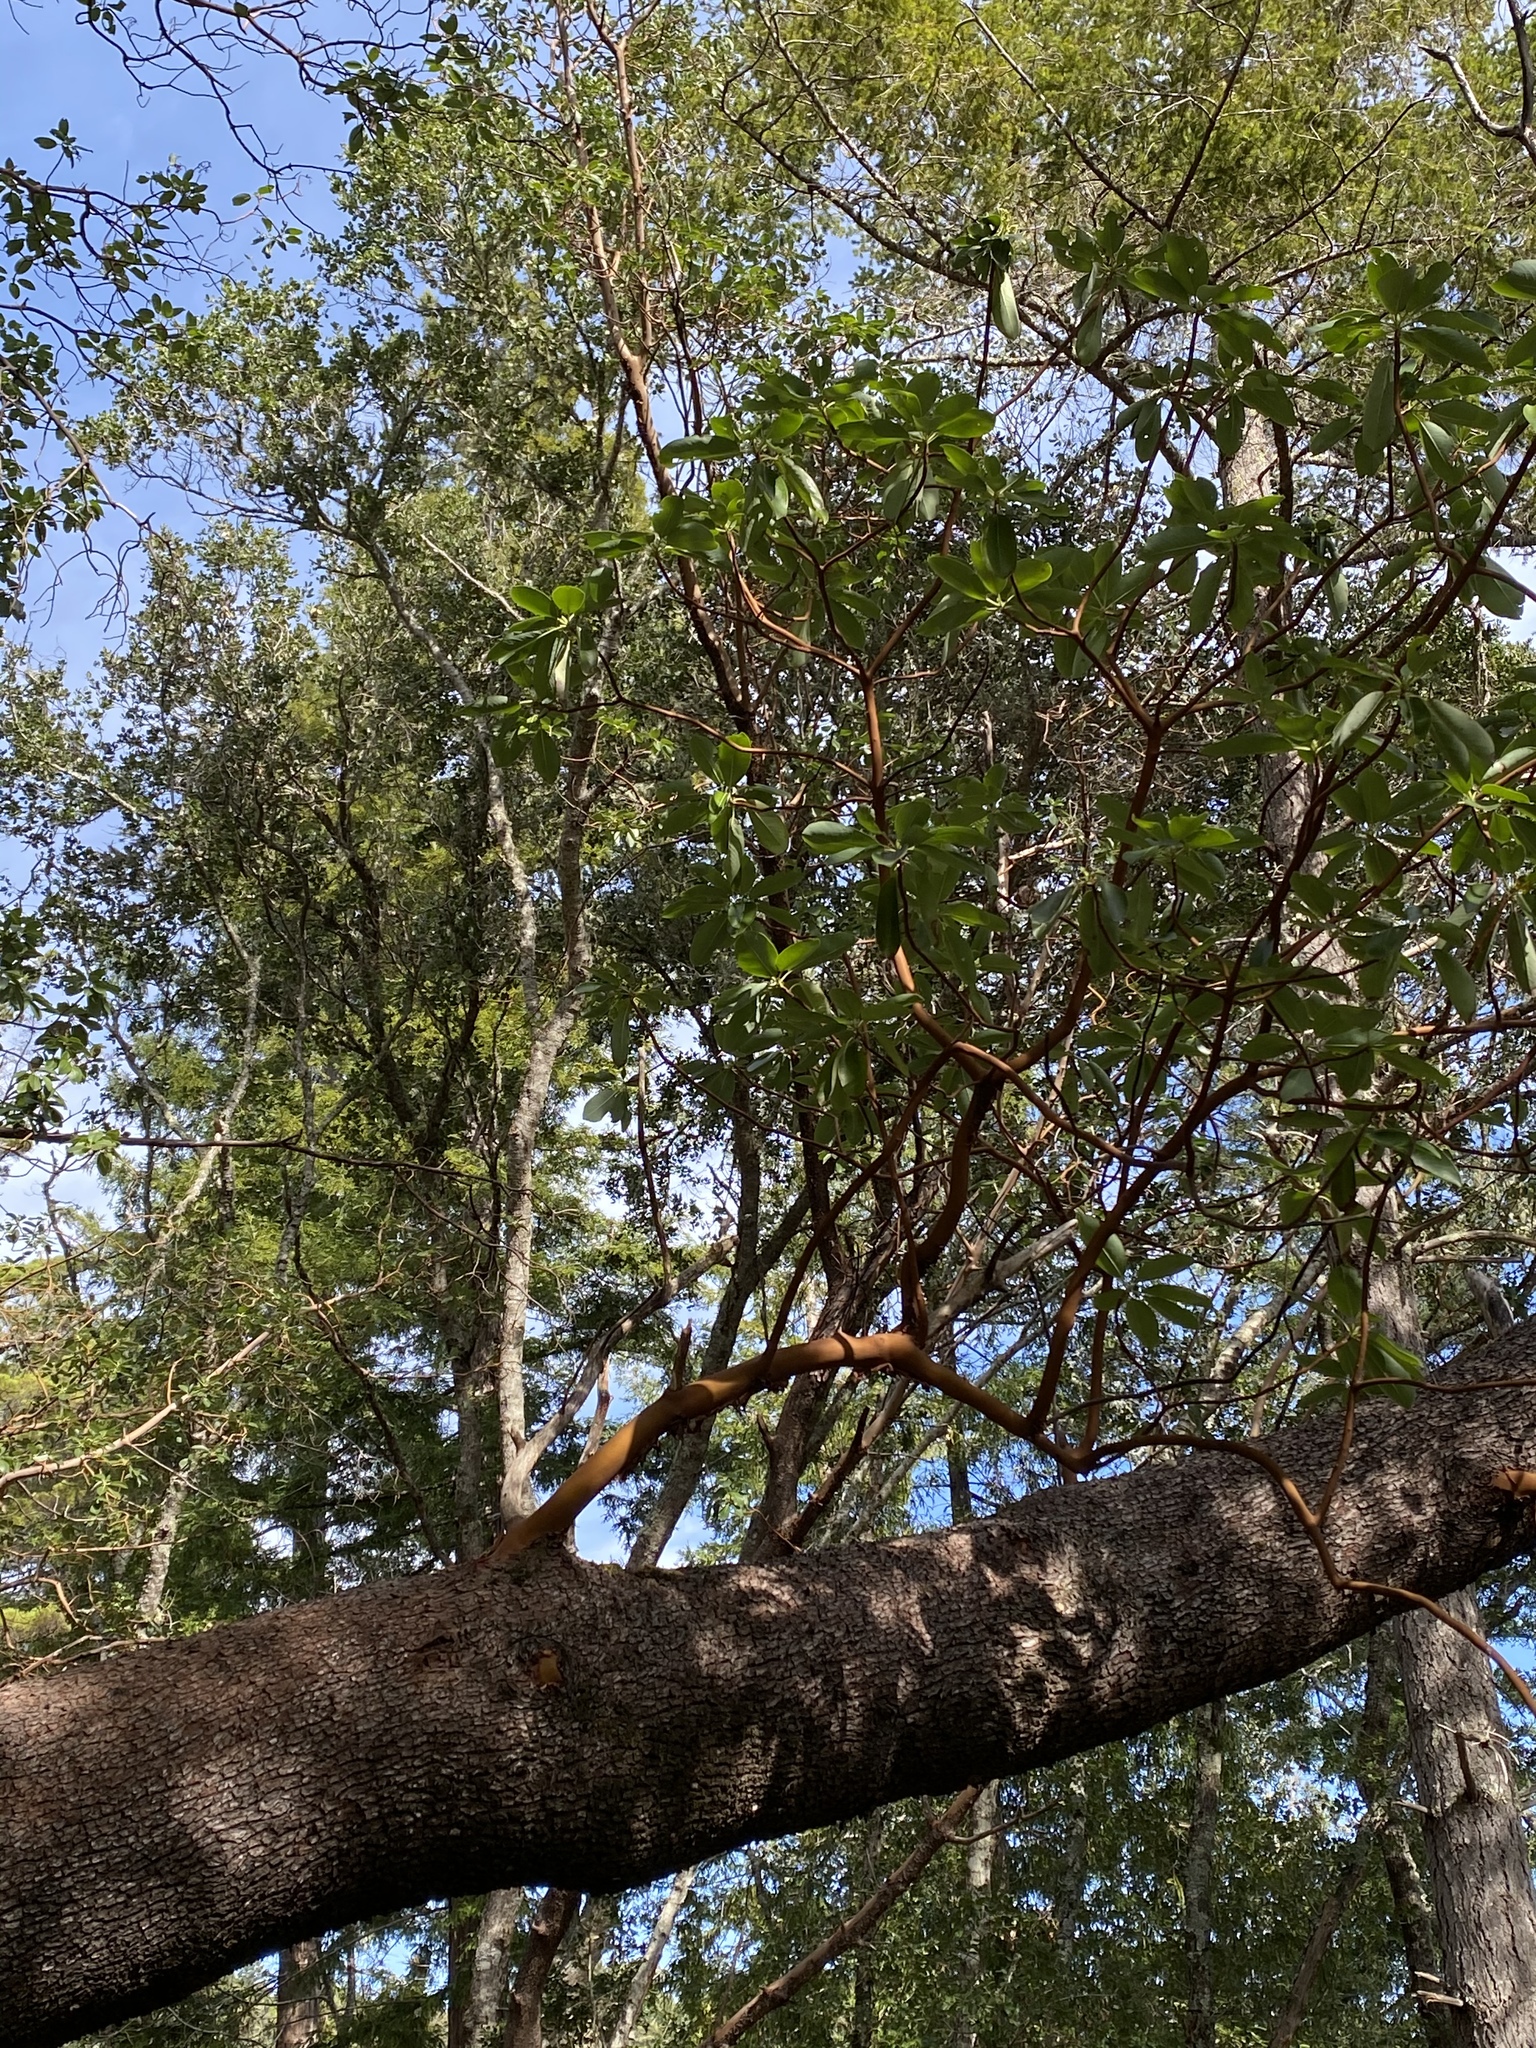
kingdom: Plantae
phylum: Tracheophyta
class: Magnoliopsida
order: Ericales
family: Ericaceae
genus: Arbutus
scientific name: Arbutus menziesii
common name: Pacific madrone
